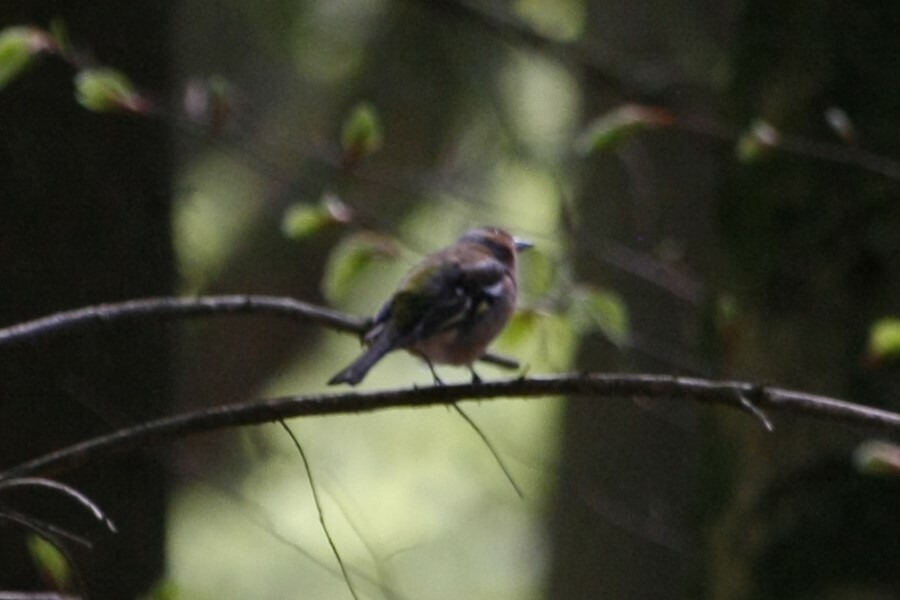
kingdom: Animalia
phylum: Chordata
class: Aves
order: Passeriformes
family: Fringillidae
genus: Fringilla
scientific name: Fringilla coelebs
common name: Common chaffinch
